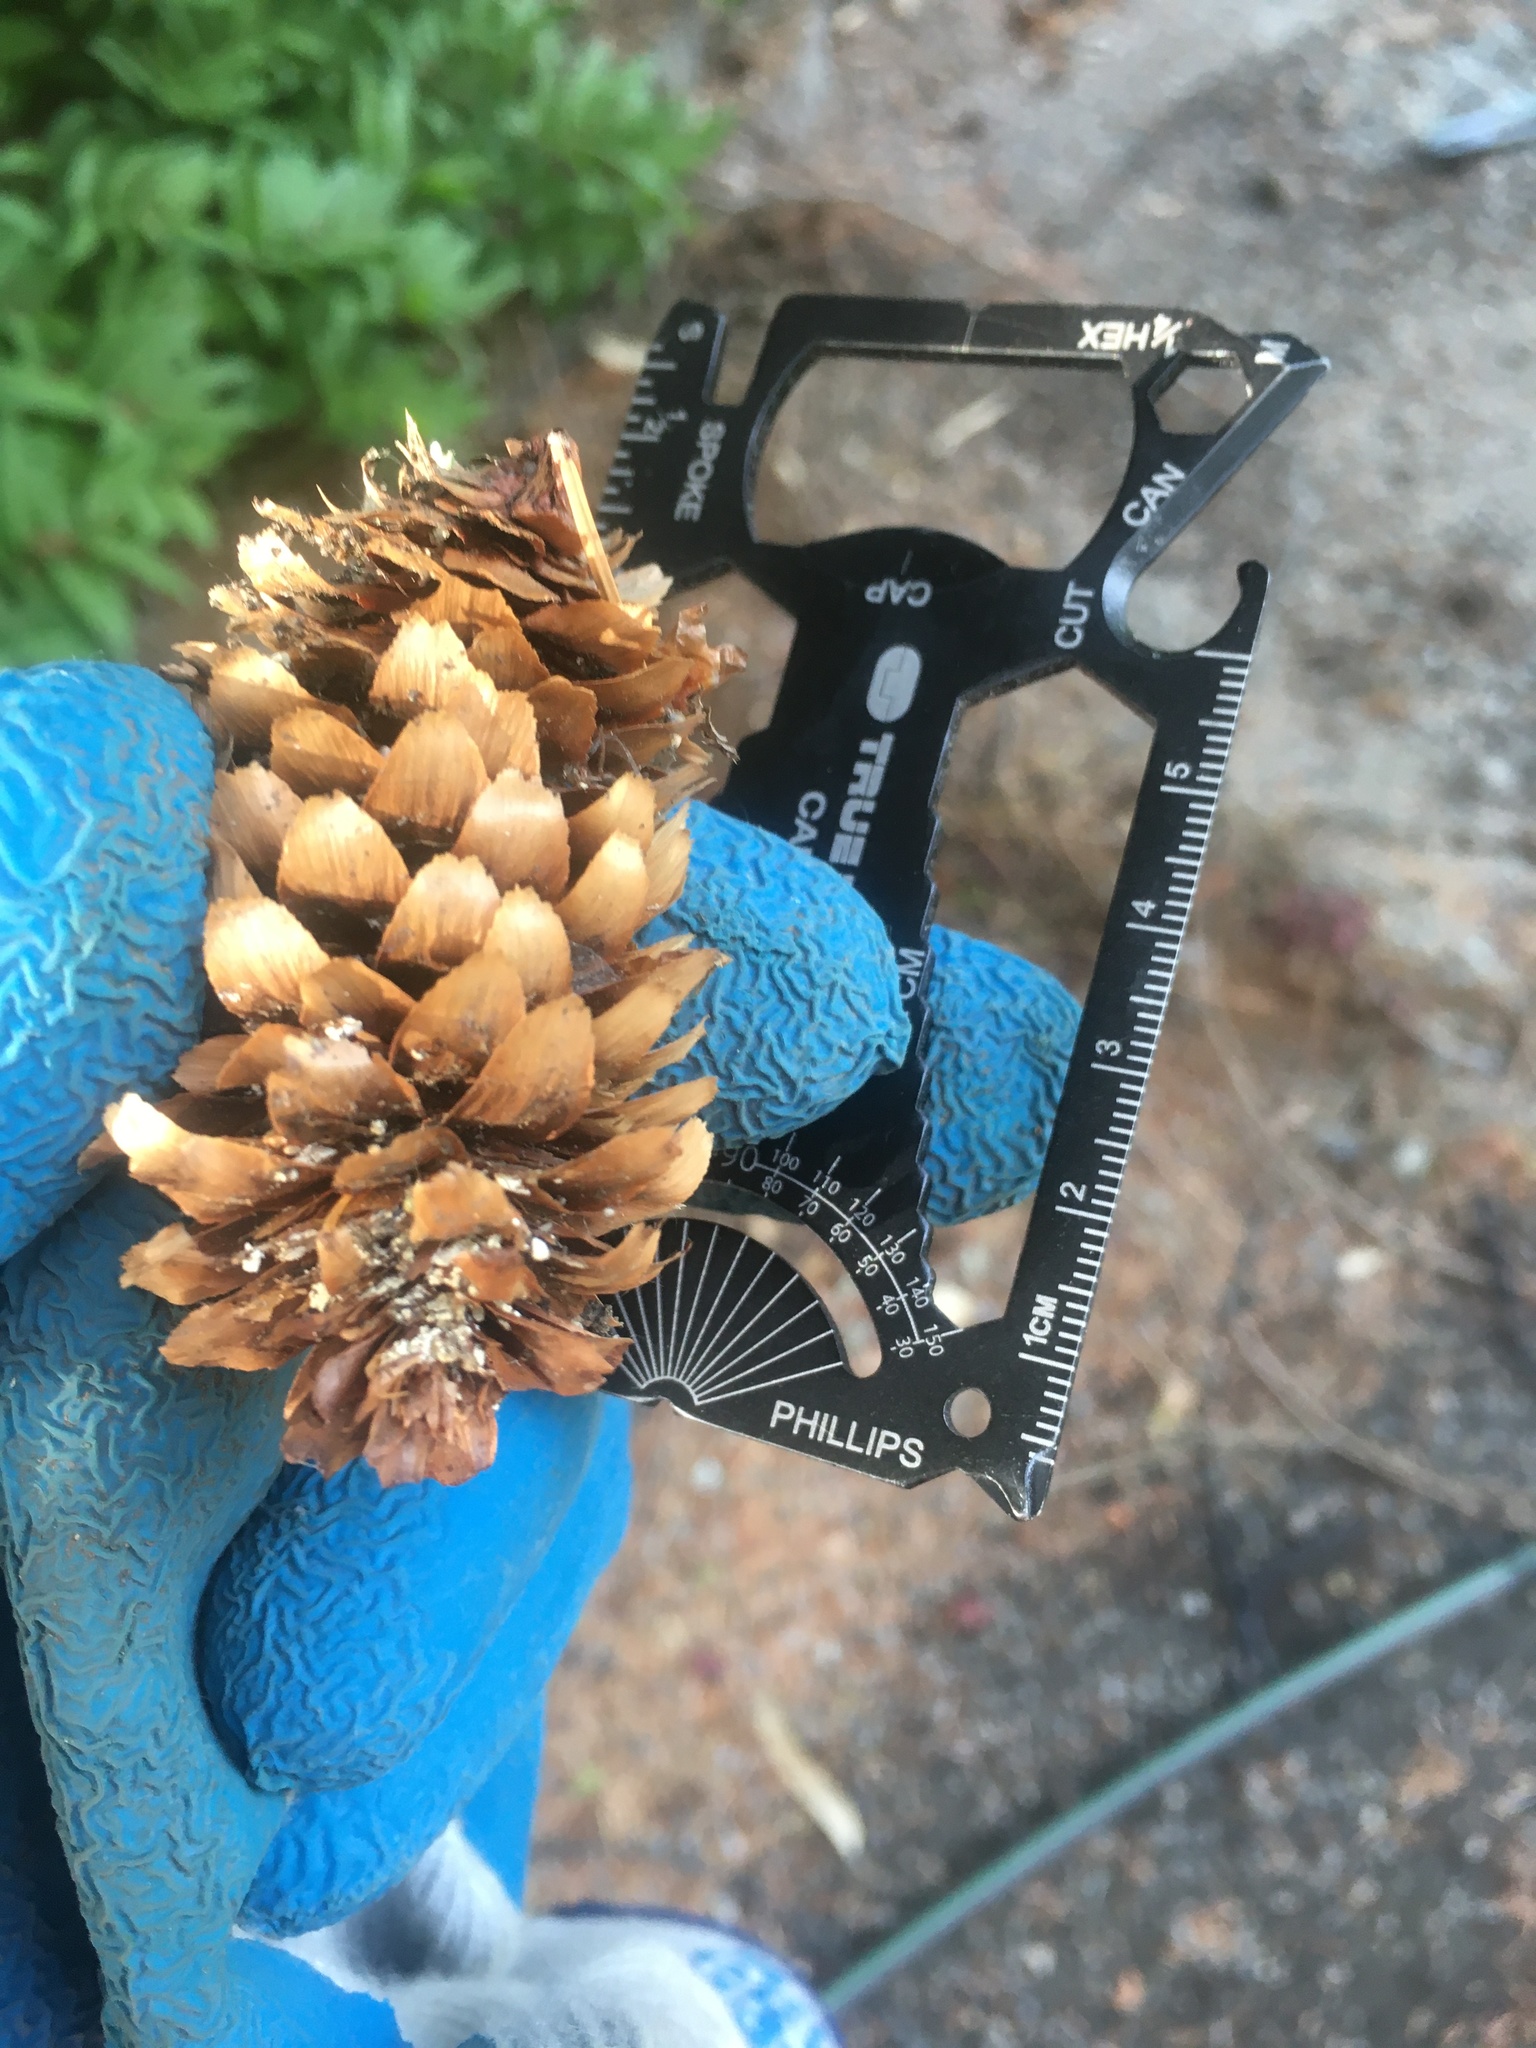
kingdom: Plantae
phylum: Tracheophyta
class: Pinopsida
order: Pinales
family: Pinaceae
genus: Picea
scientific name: Picea sitchensis
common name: Sitka spruce
